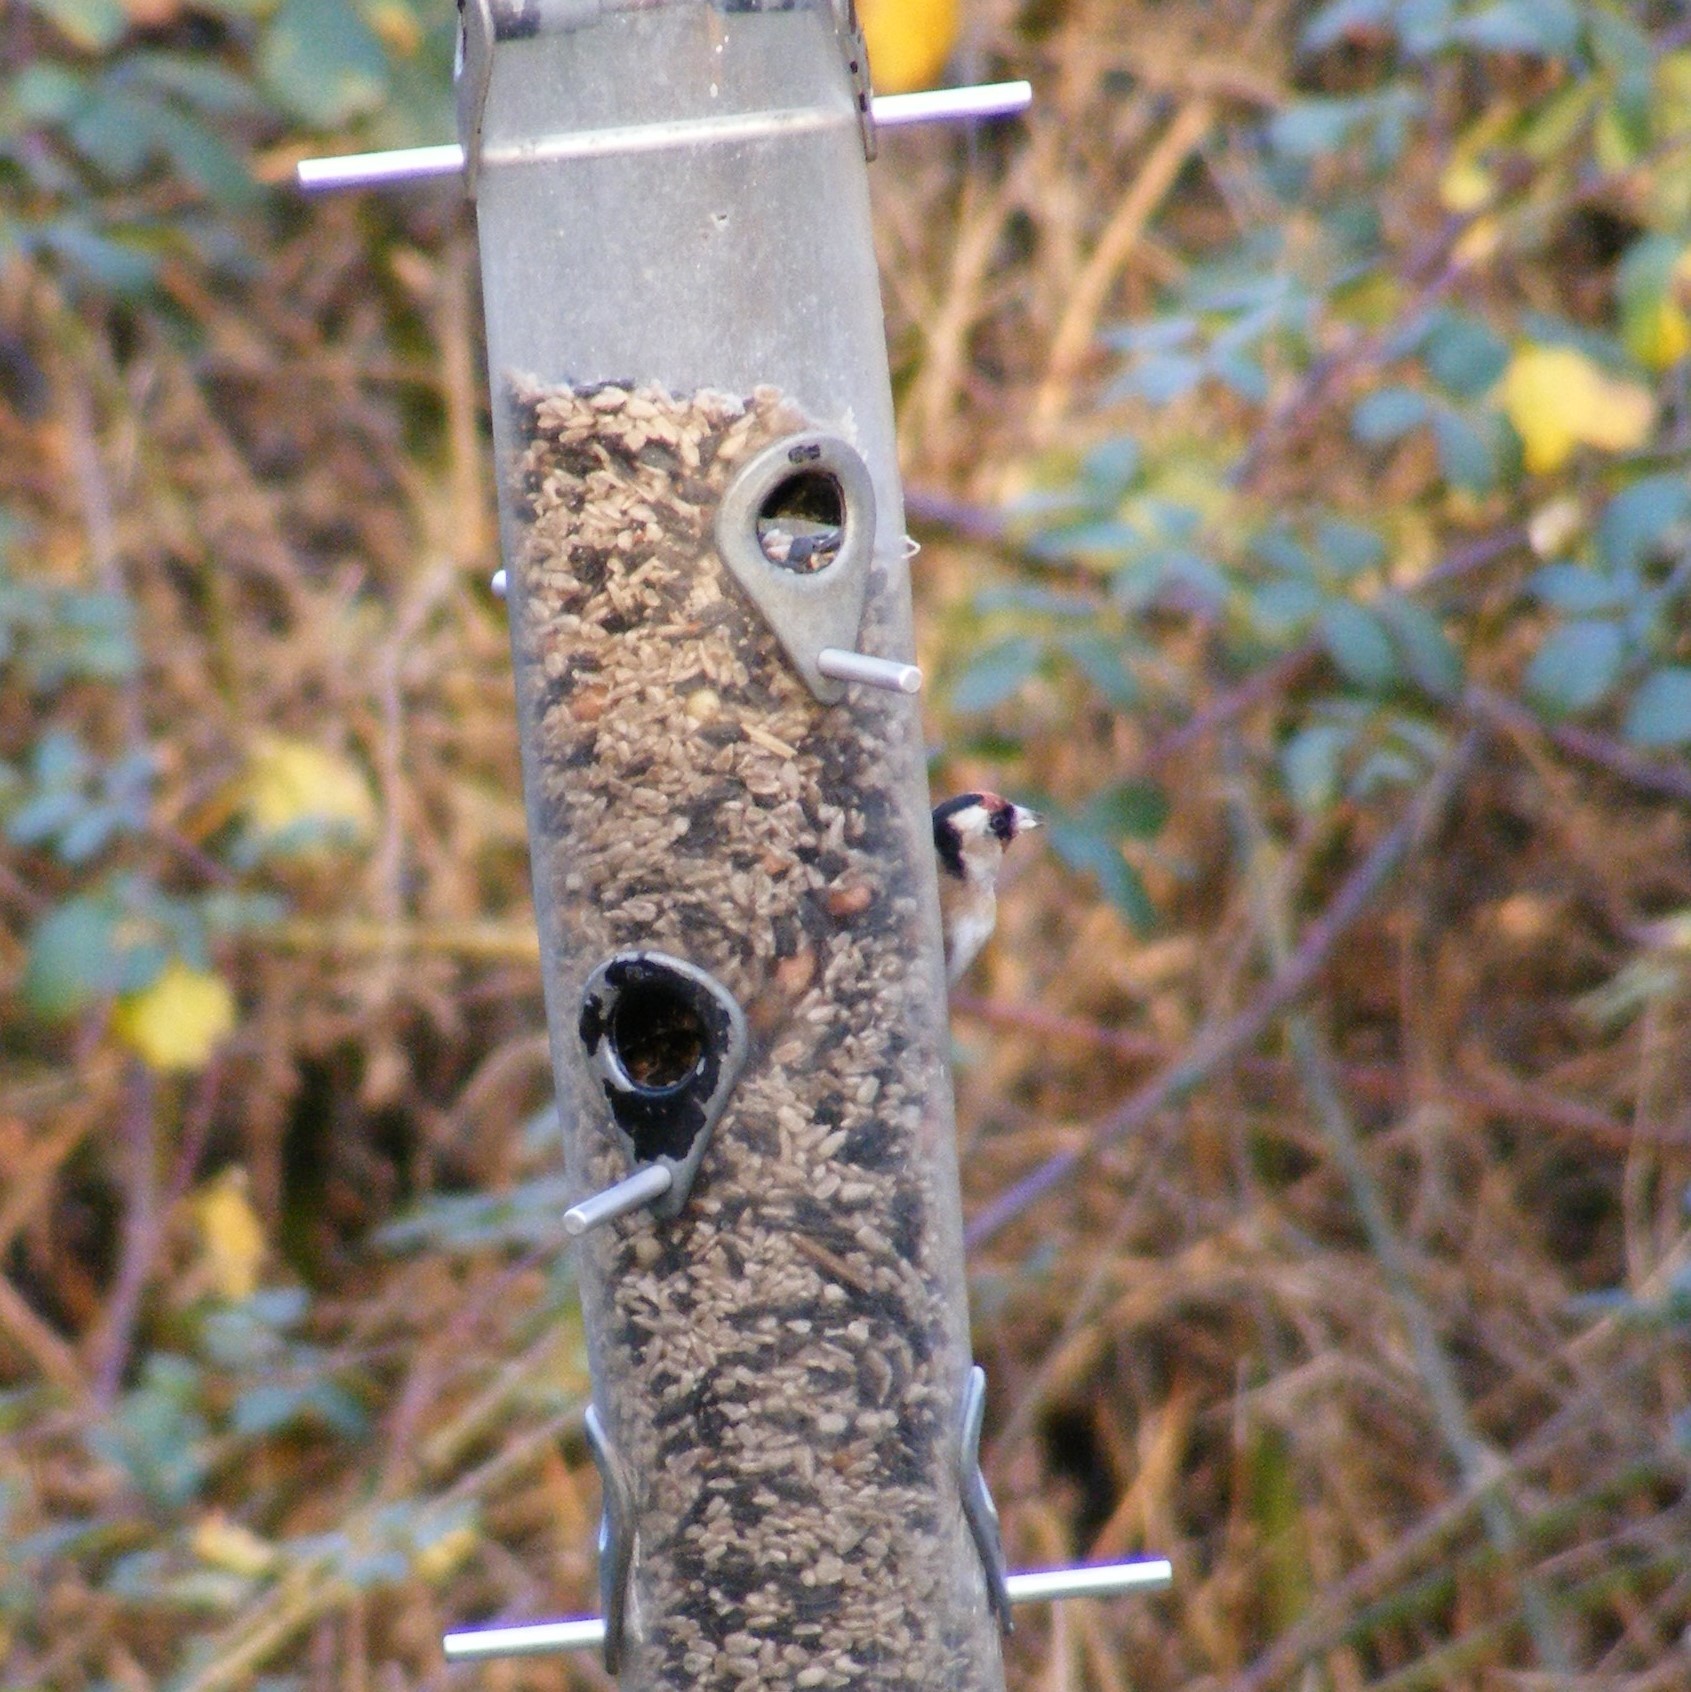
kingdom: Animalia
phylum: Chordata
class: Aves
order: Passeriformes
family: Fringillidae
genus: Carduelis
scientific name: Carduelis carduelis
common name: European goldfinch
